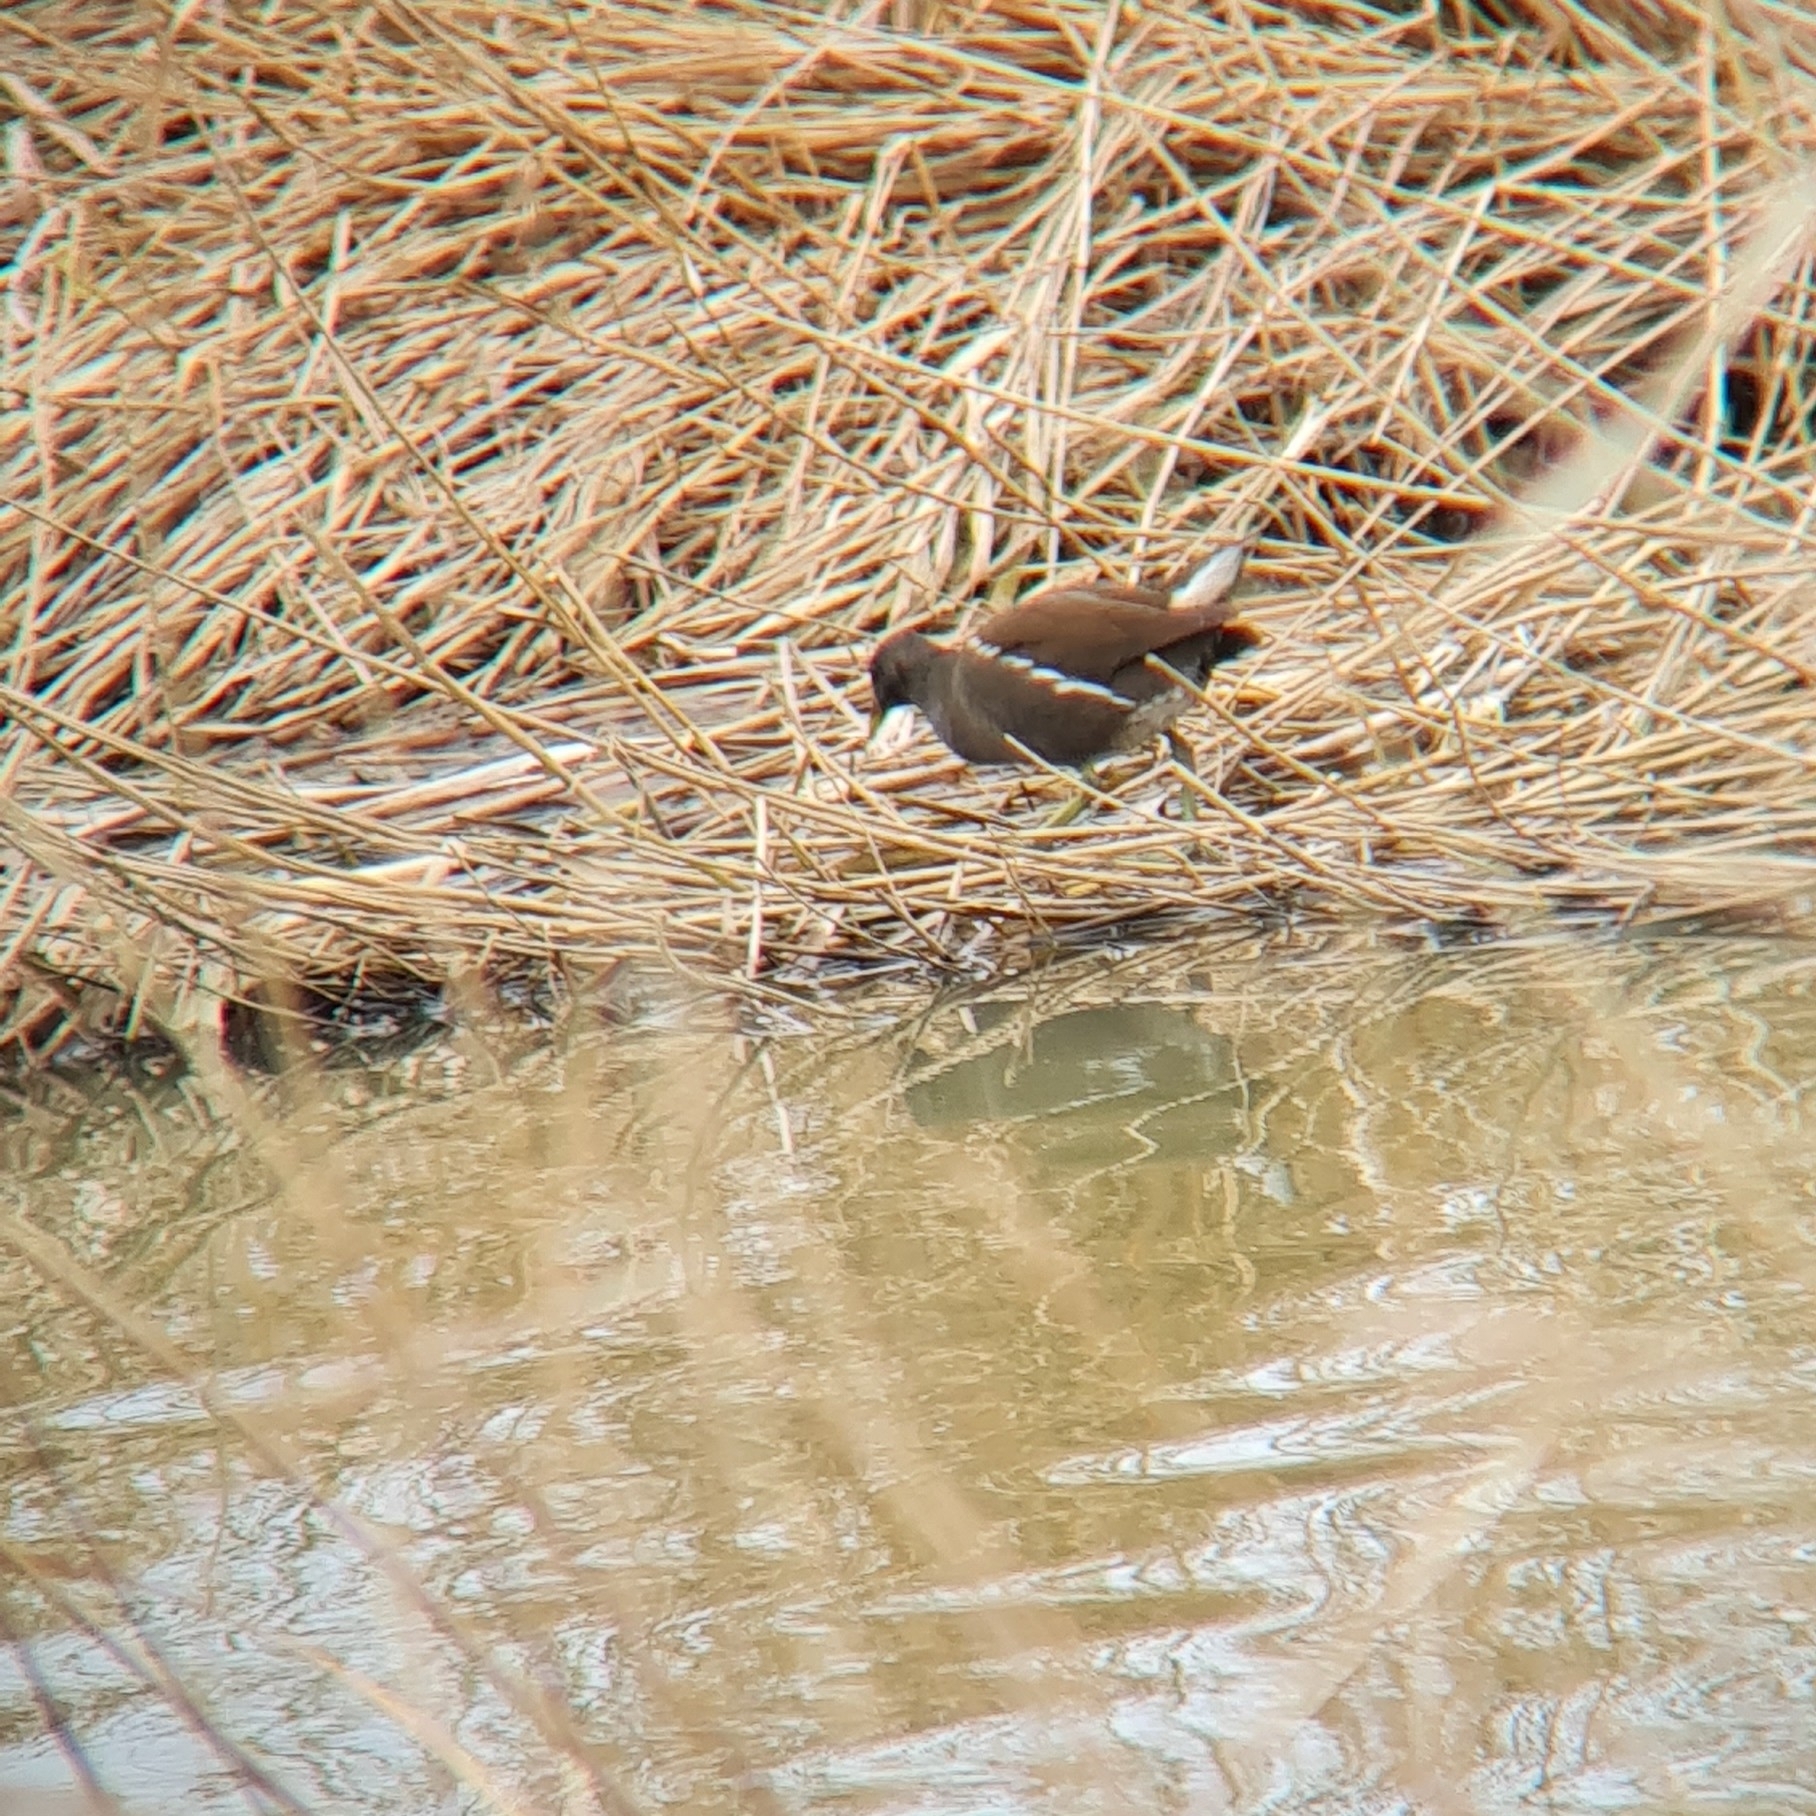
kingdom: Animalia
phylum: Chordata
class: Aves
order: Gruiformes
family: Rallidae
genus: Gallinula
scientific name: Gallinula chloropus
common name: Common moorhen
